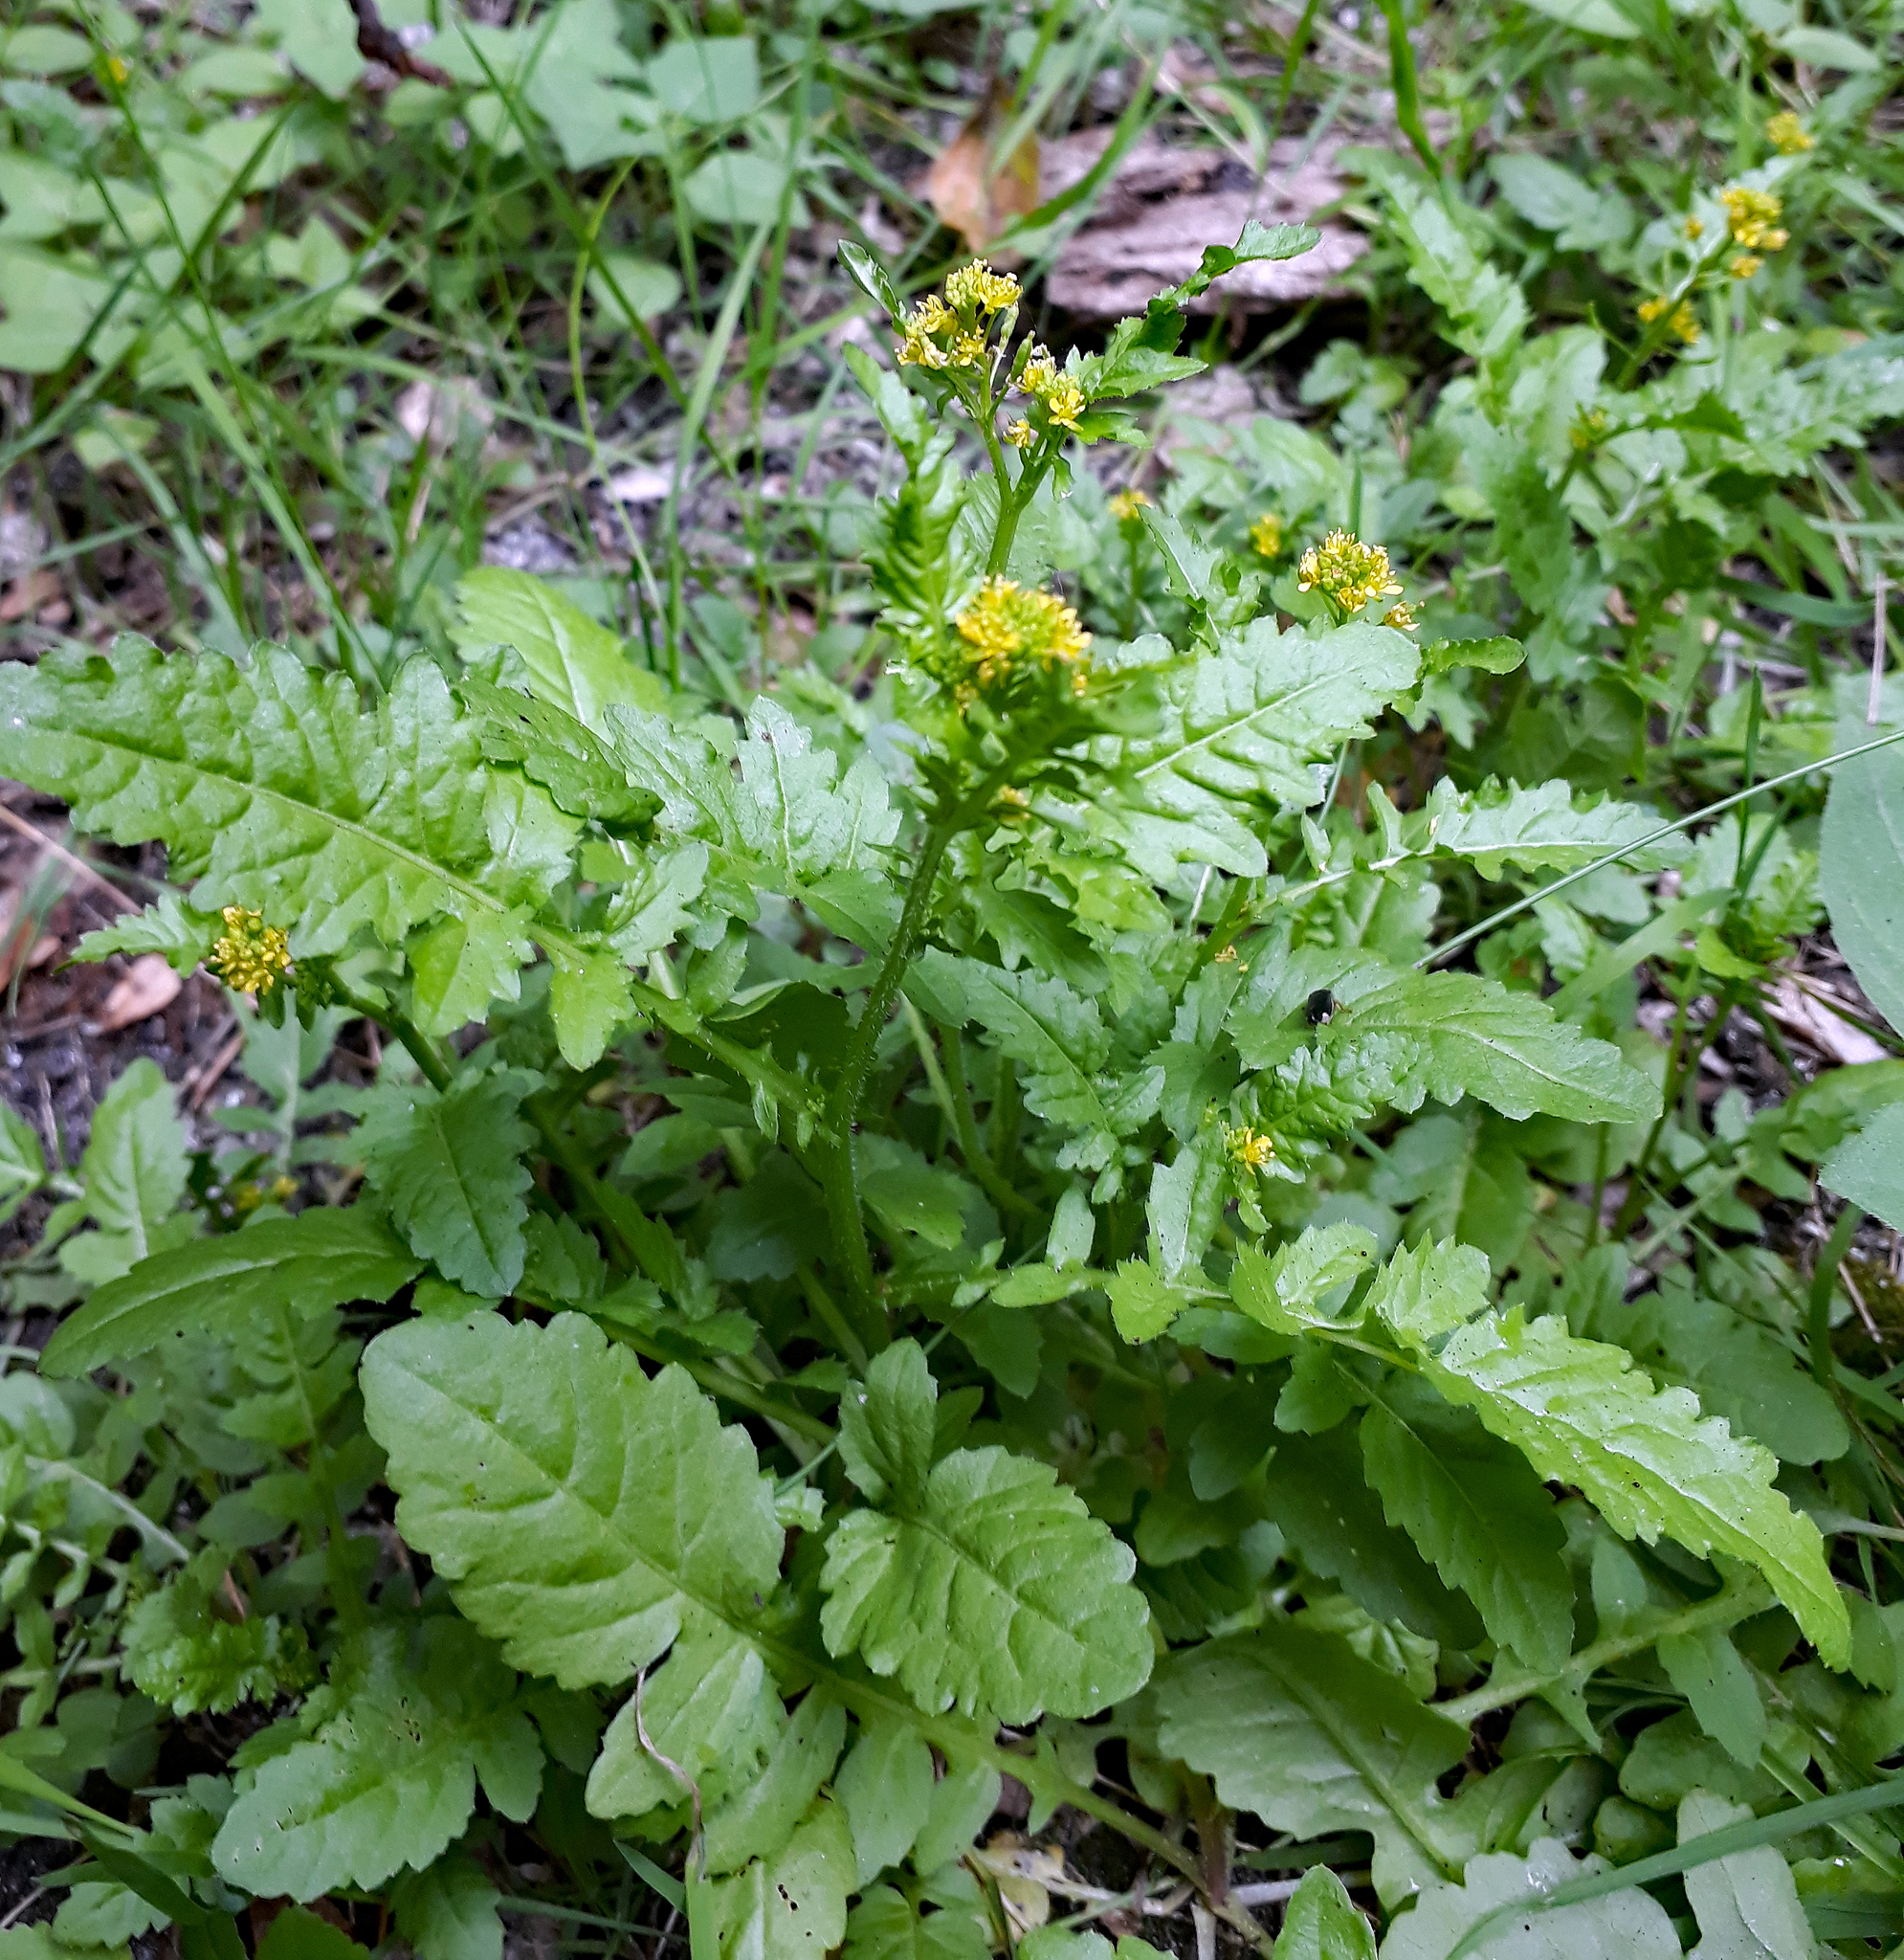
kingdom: Plantae
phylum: Tracheophyta
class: Magnoliopsida
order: Brassicales
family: Brassicaceae
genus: Rorippa
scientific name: Rorippa palustris
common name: Marsh yellow-cress
